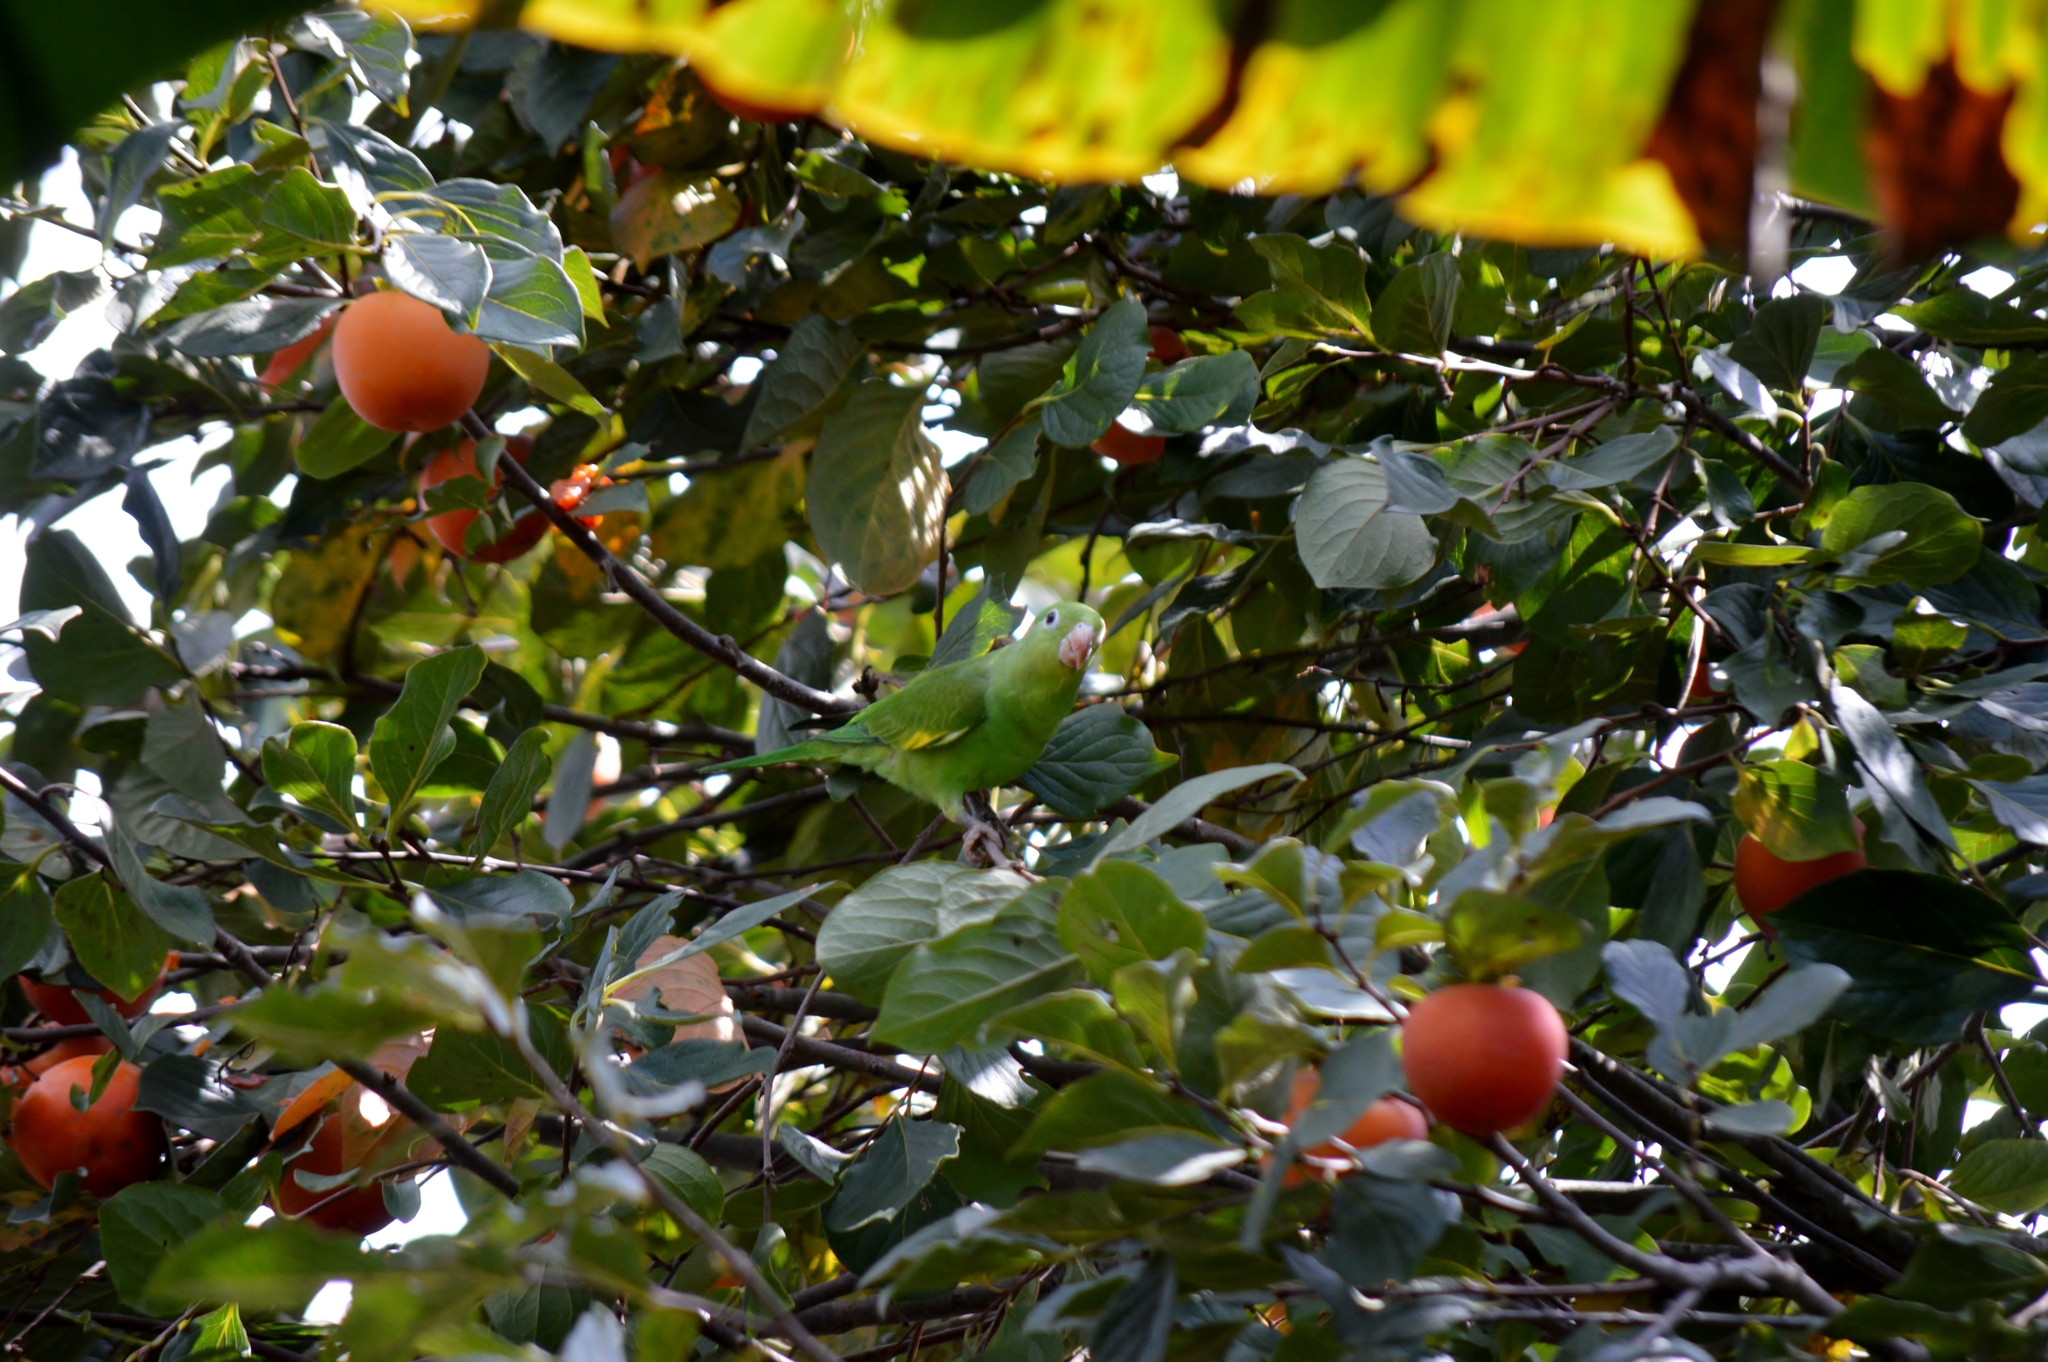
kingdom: Animalia
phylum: Chordata
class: Aves
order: Psittaciformes
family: Psittacidae
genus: Brotogeris
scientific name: Brotogeris chiriri
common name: Yellow-chevroned parakeet
